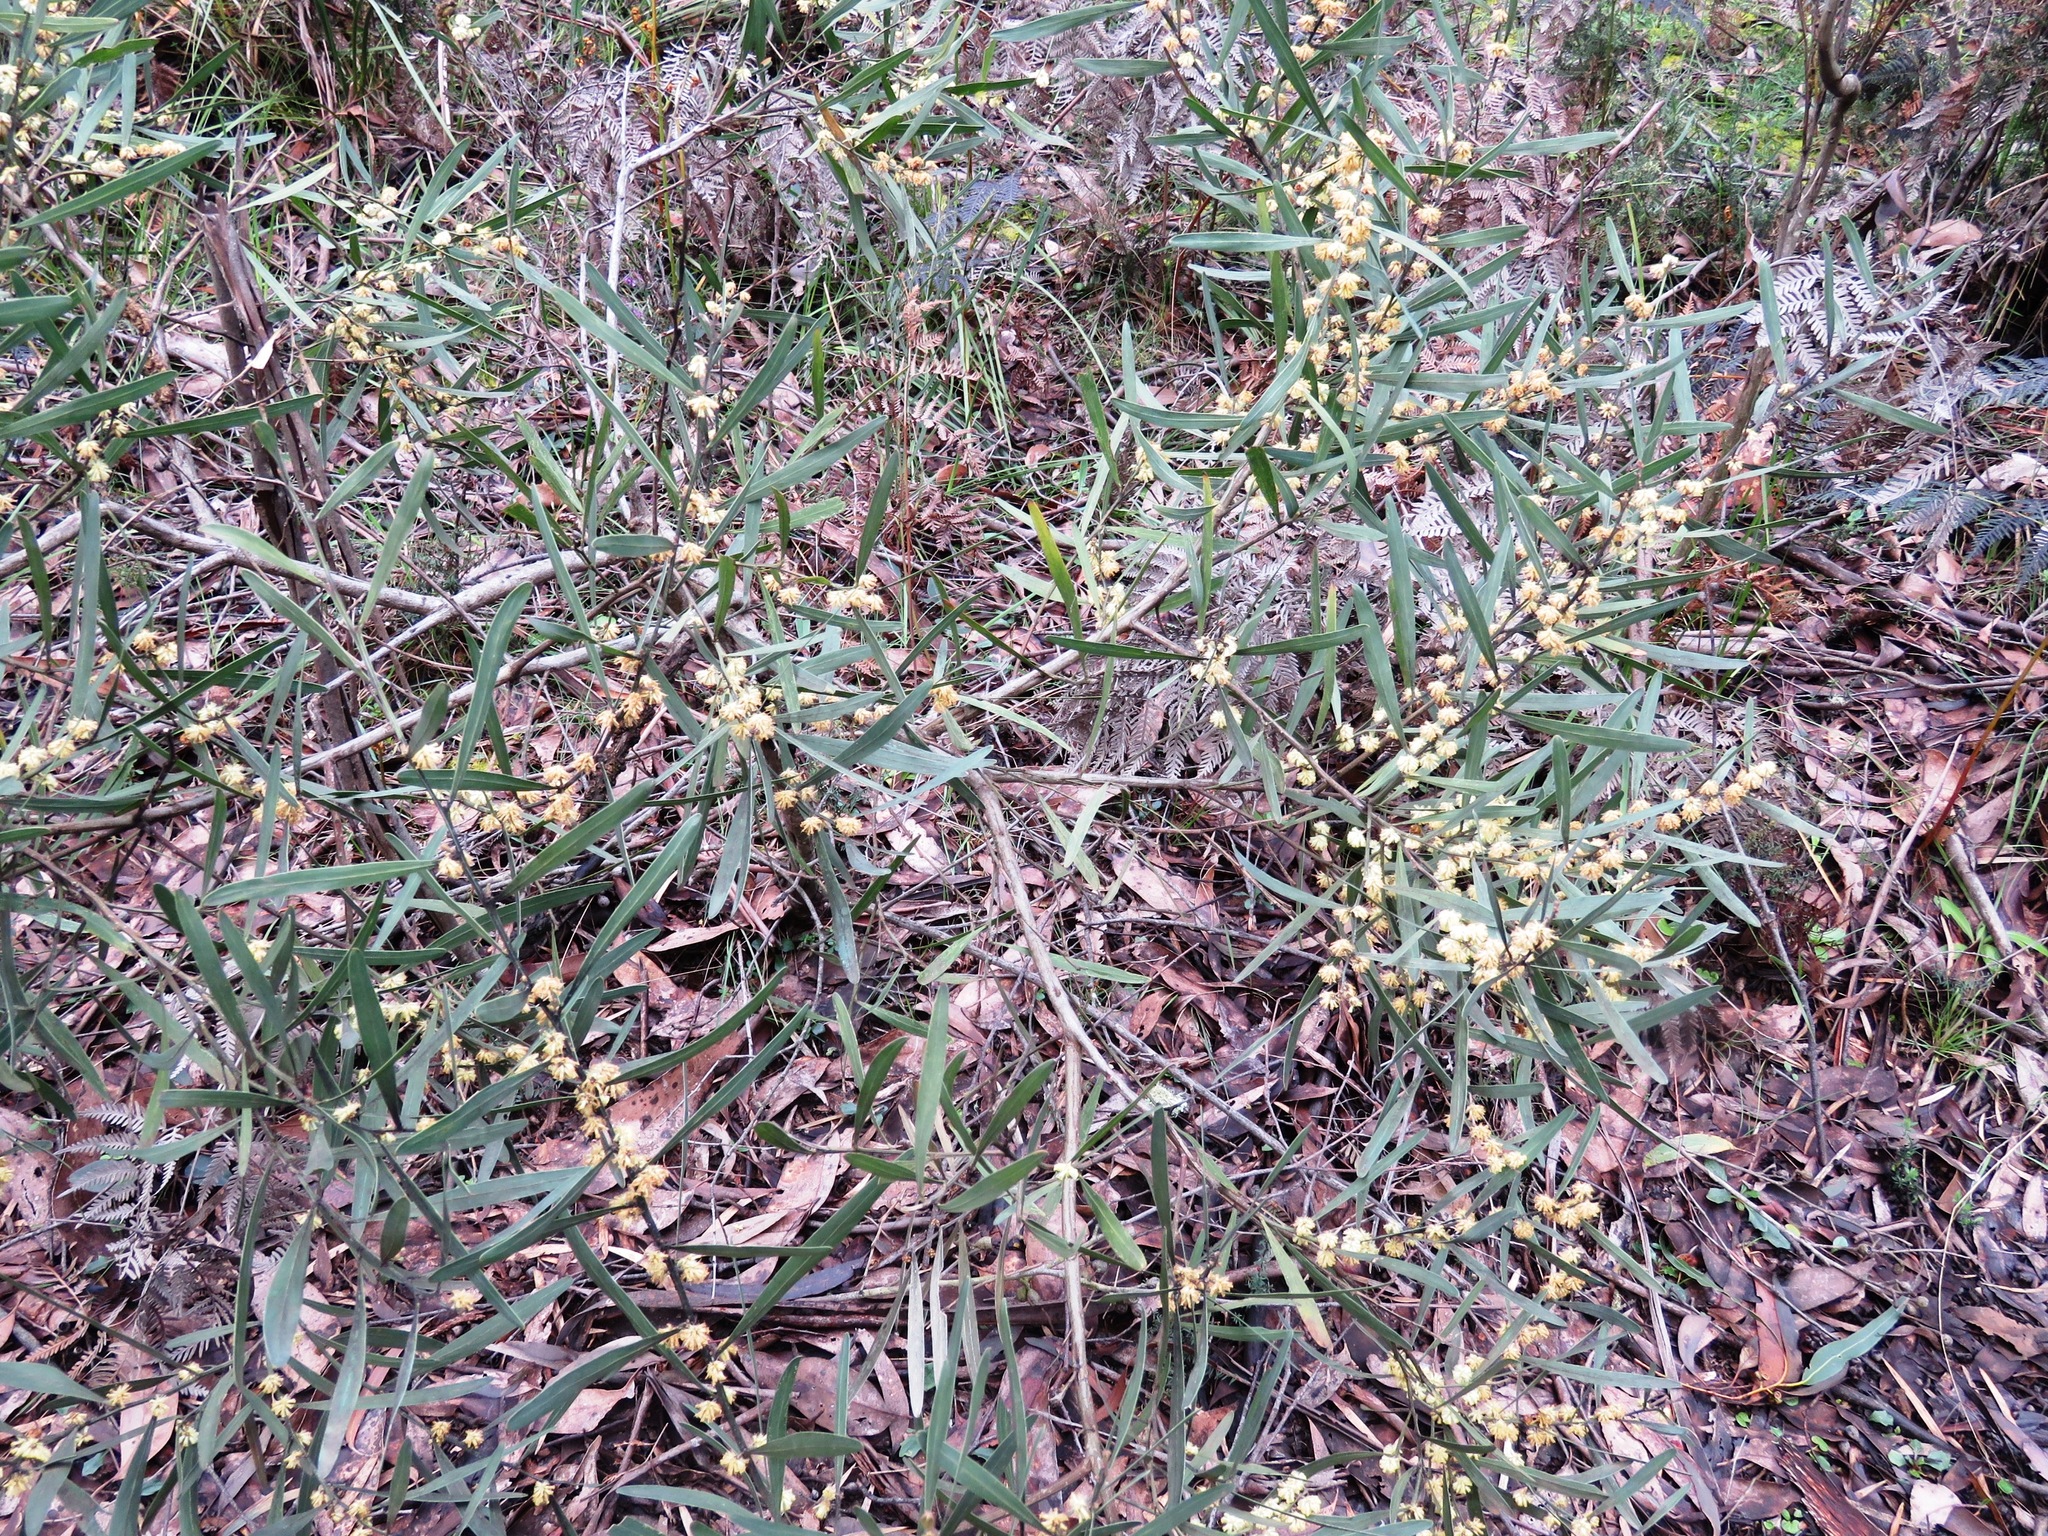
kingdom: Plantae
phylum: Tracheophyta
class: Magnoliopsida
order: Fabales
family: Fabaceae
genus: Acacia
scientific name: Acacia stricta
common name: Hop wattle
